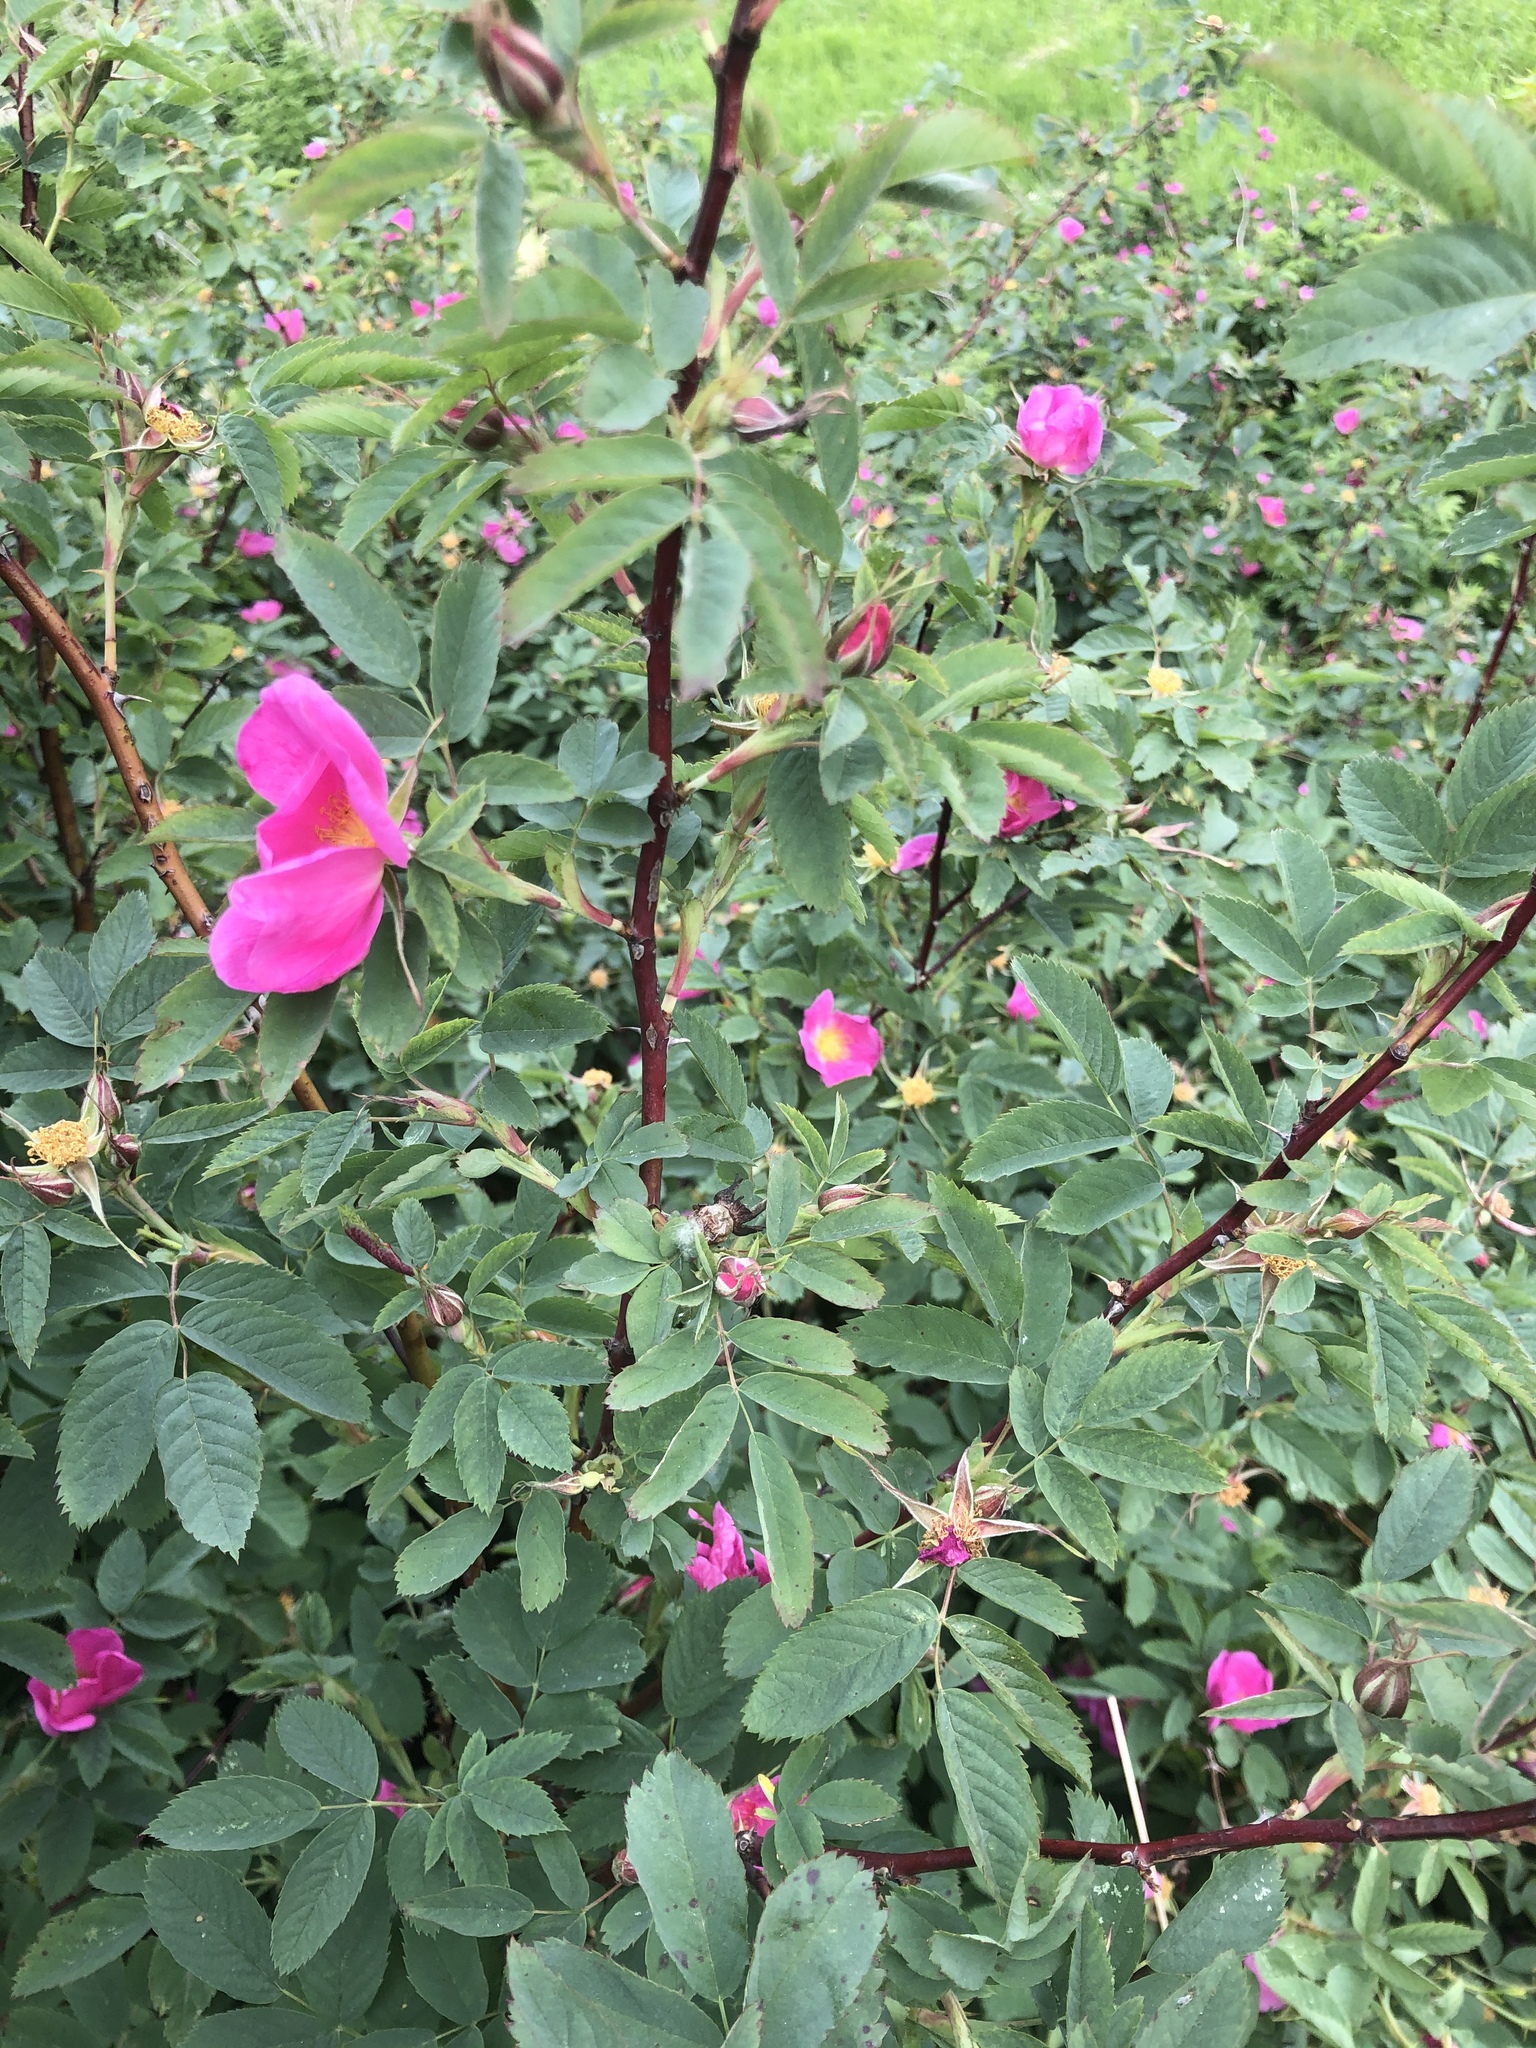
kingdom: Plantae
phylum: Tracheophyta
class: Magnoliopsida
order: Rosales
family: Rosaceae
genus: Rosa
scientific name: Rosa majalis
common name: Cinnamon rose
